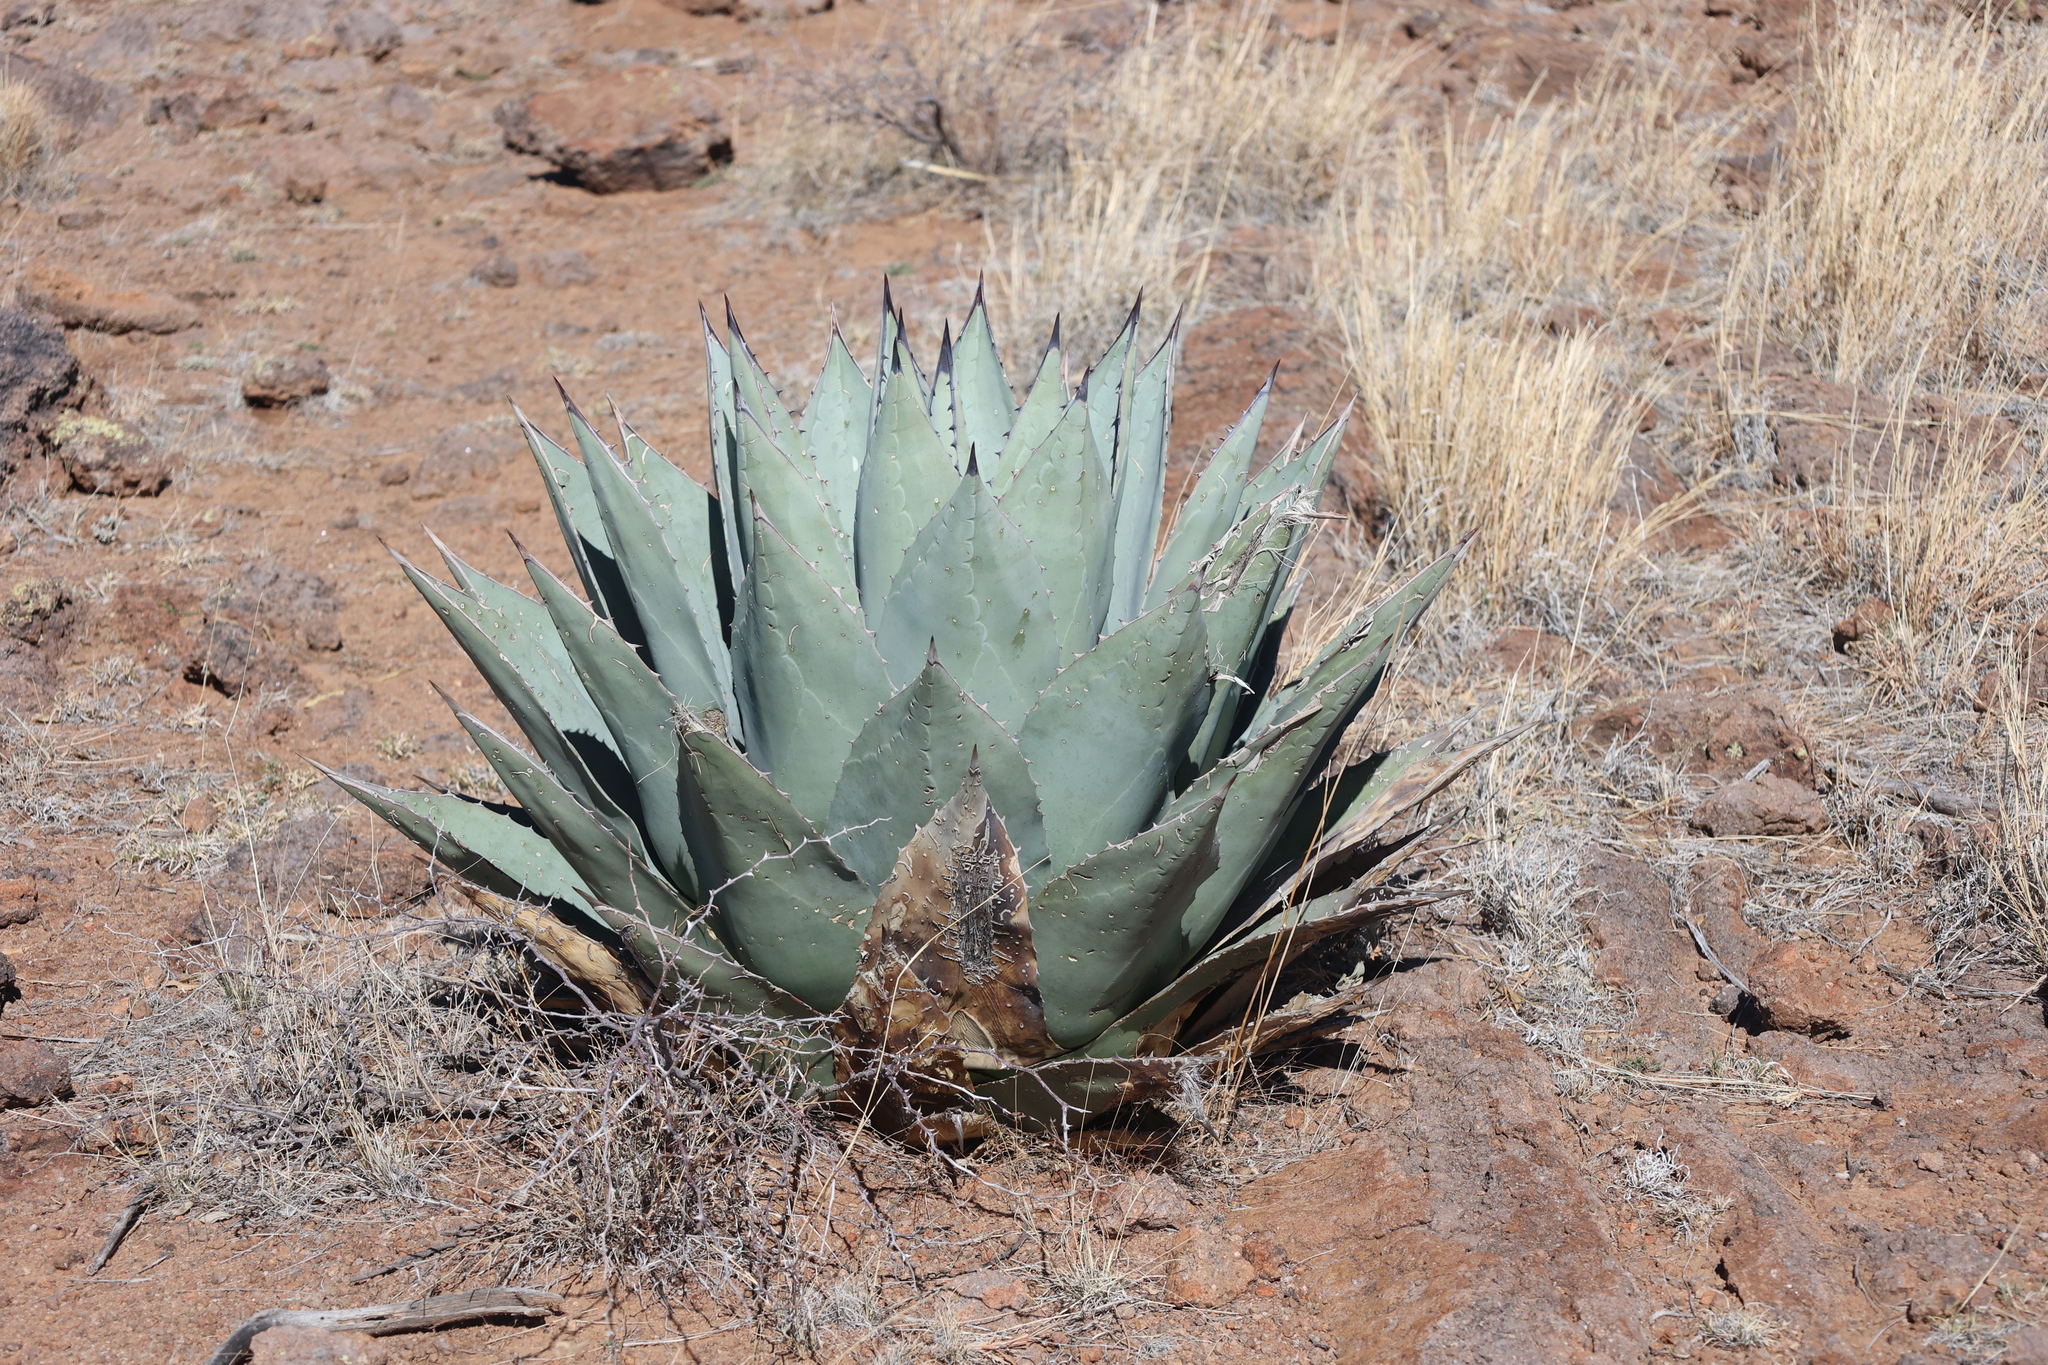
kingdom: Plantae
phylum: Tracheophyta
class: Liliopsida
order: Asparagales
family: Asparagaceae
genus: Agave
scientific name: Agave havardiana
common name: Havard agave
